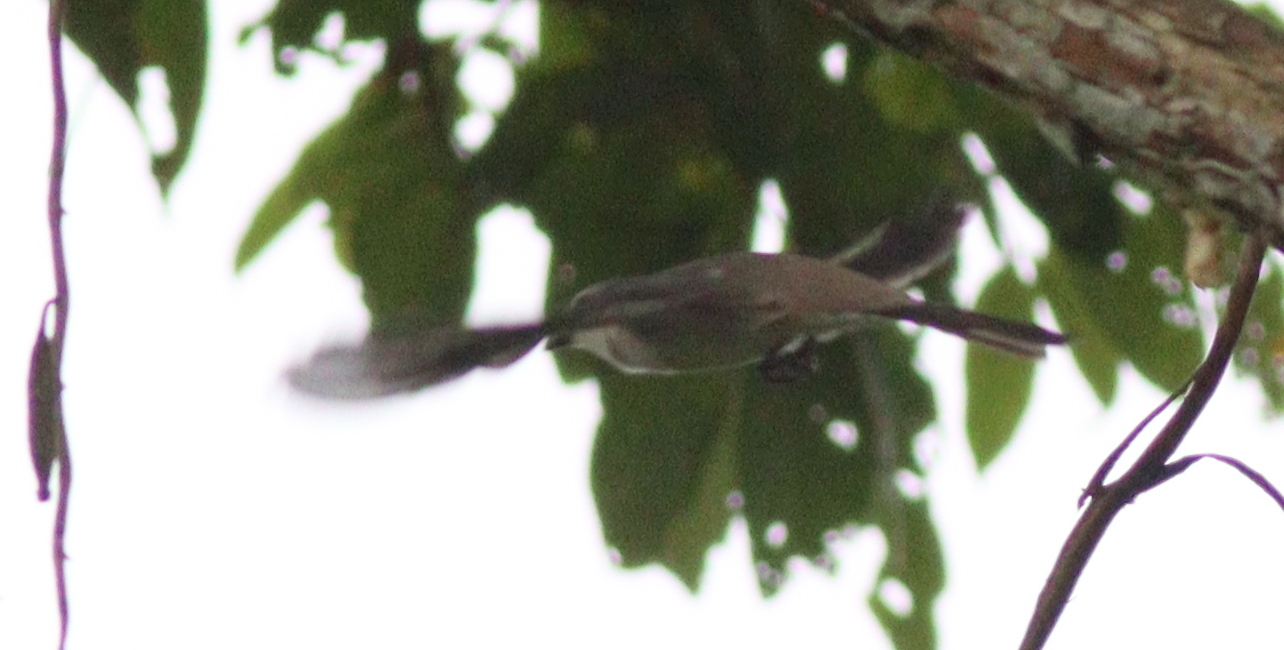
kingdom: Animalia
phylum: Chordata
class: Aves
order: Passeriformes
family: Campephagidae
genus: Pericrocotus
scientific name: Pericrocotus cantonensis
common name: Swinhoe's minivet
